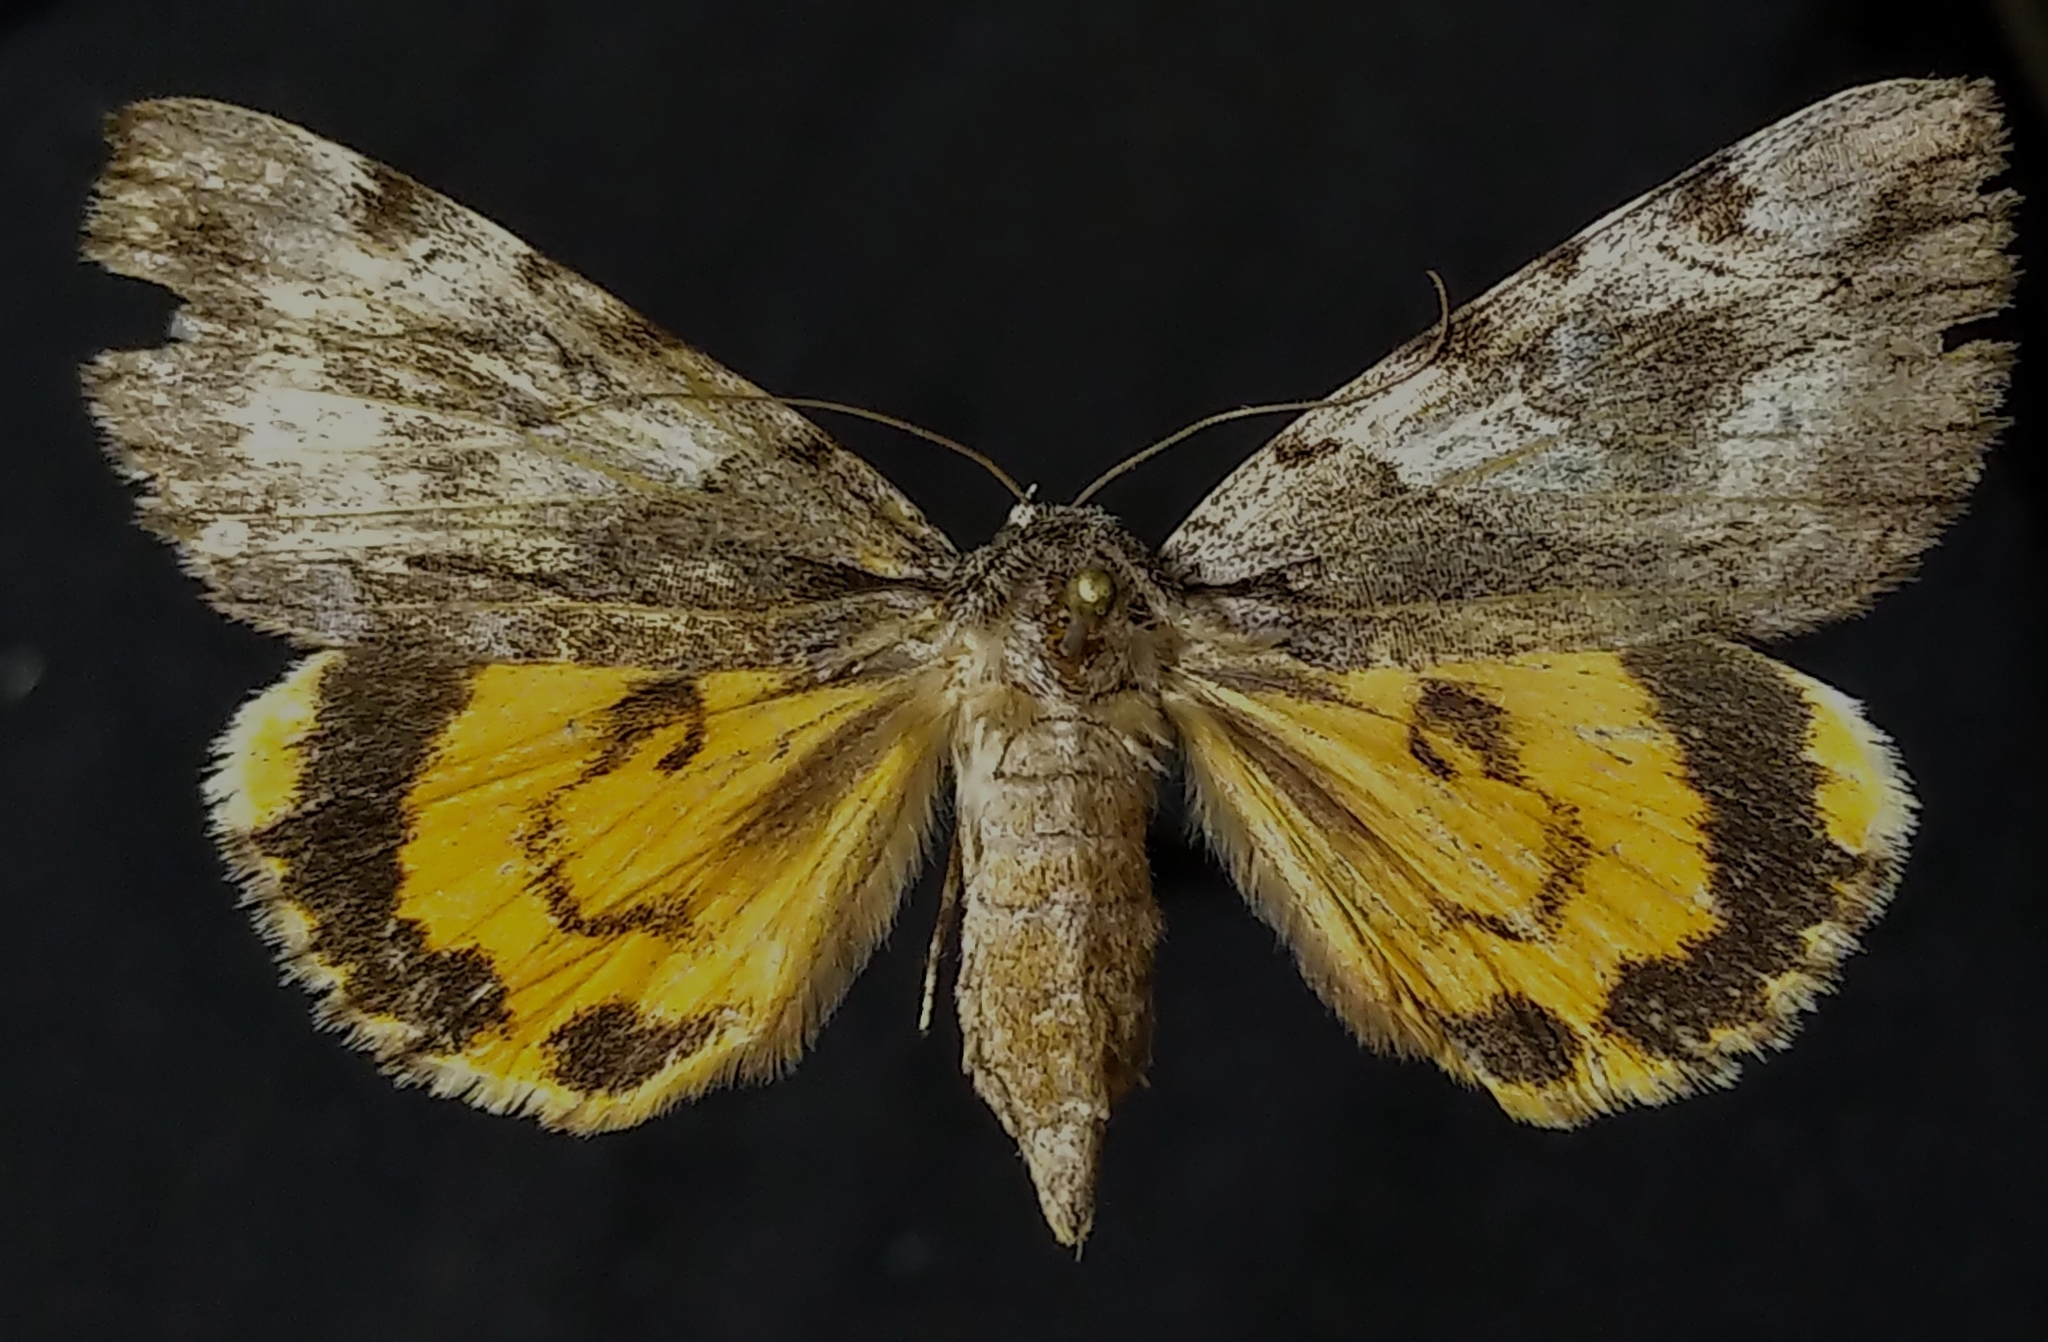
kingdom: Animalia
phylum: Arthropoda
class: Insecta
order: Lepidoptera
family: Erebidae
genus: Catocala
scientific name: Catocala blandula
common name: Charming underwing
